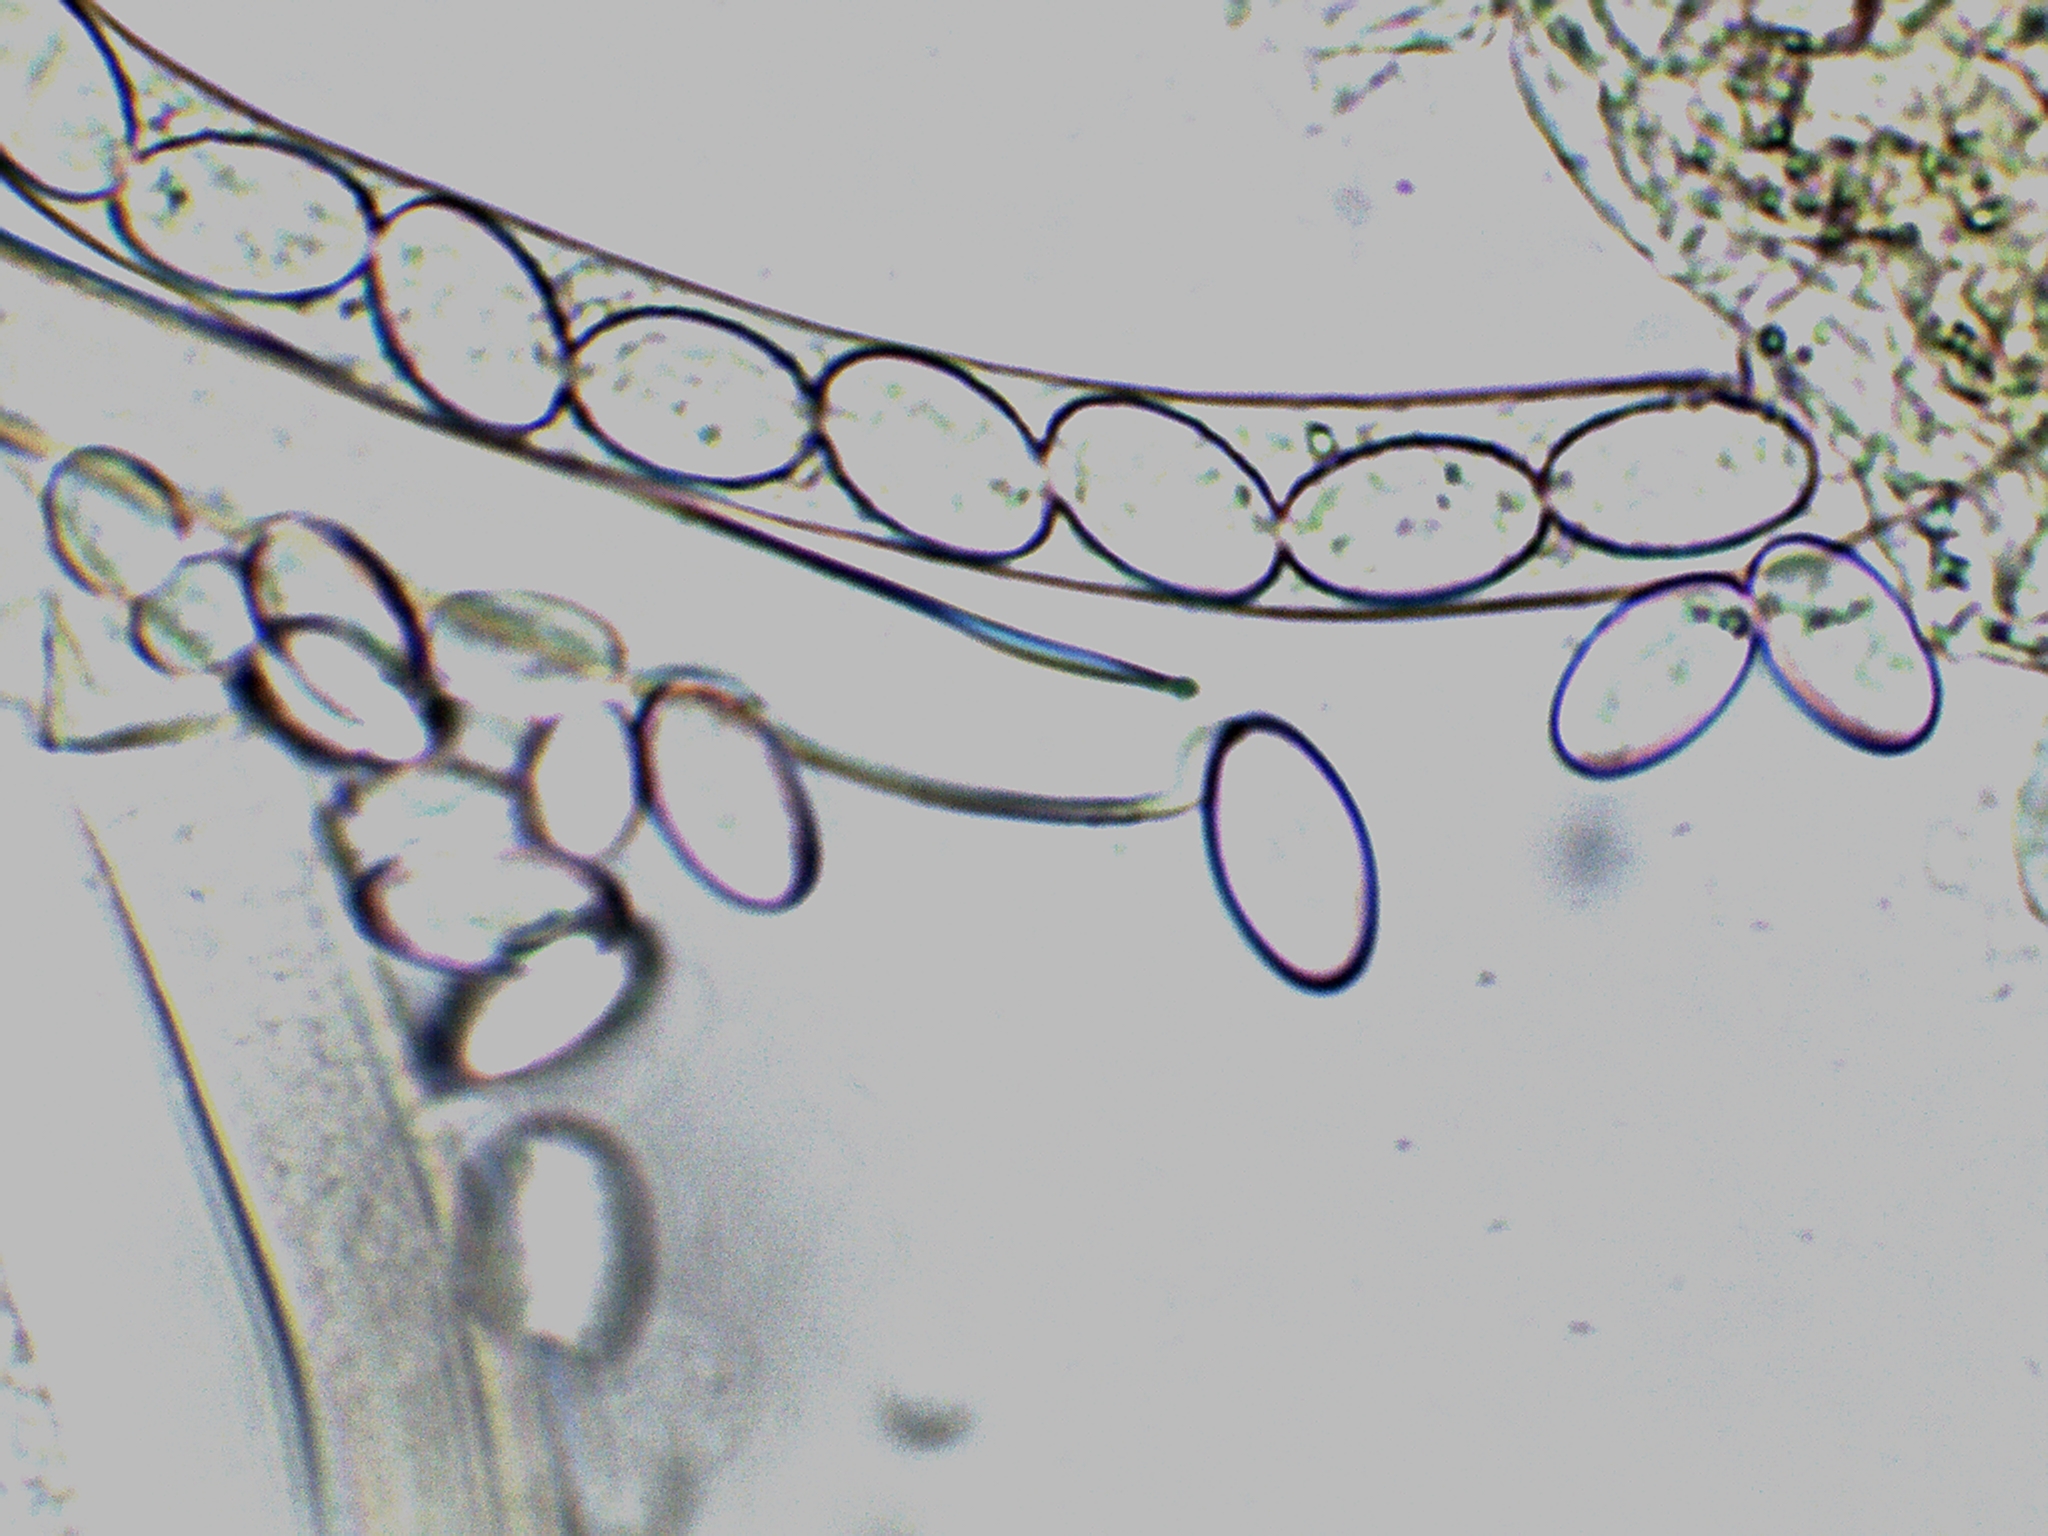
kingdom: Fungi
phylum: Ascomycota
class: Pezizomycetes
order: Pezizales
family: Pezizaceae
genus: Peziza
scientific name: Peziza varia
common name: Layered cup
